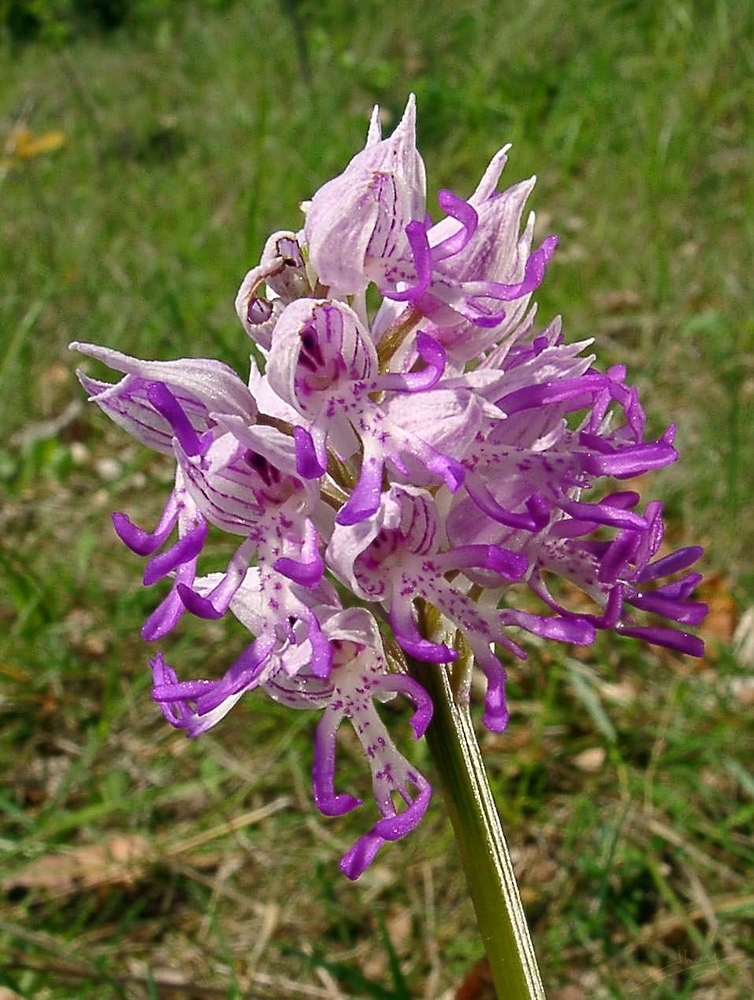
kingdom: Plantae
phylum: Tracheophyta
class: Liliopsida
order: Asparagales
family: Orchidaceae
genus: Orchis
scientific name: Orchis simia
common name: Monkey orchid
